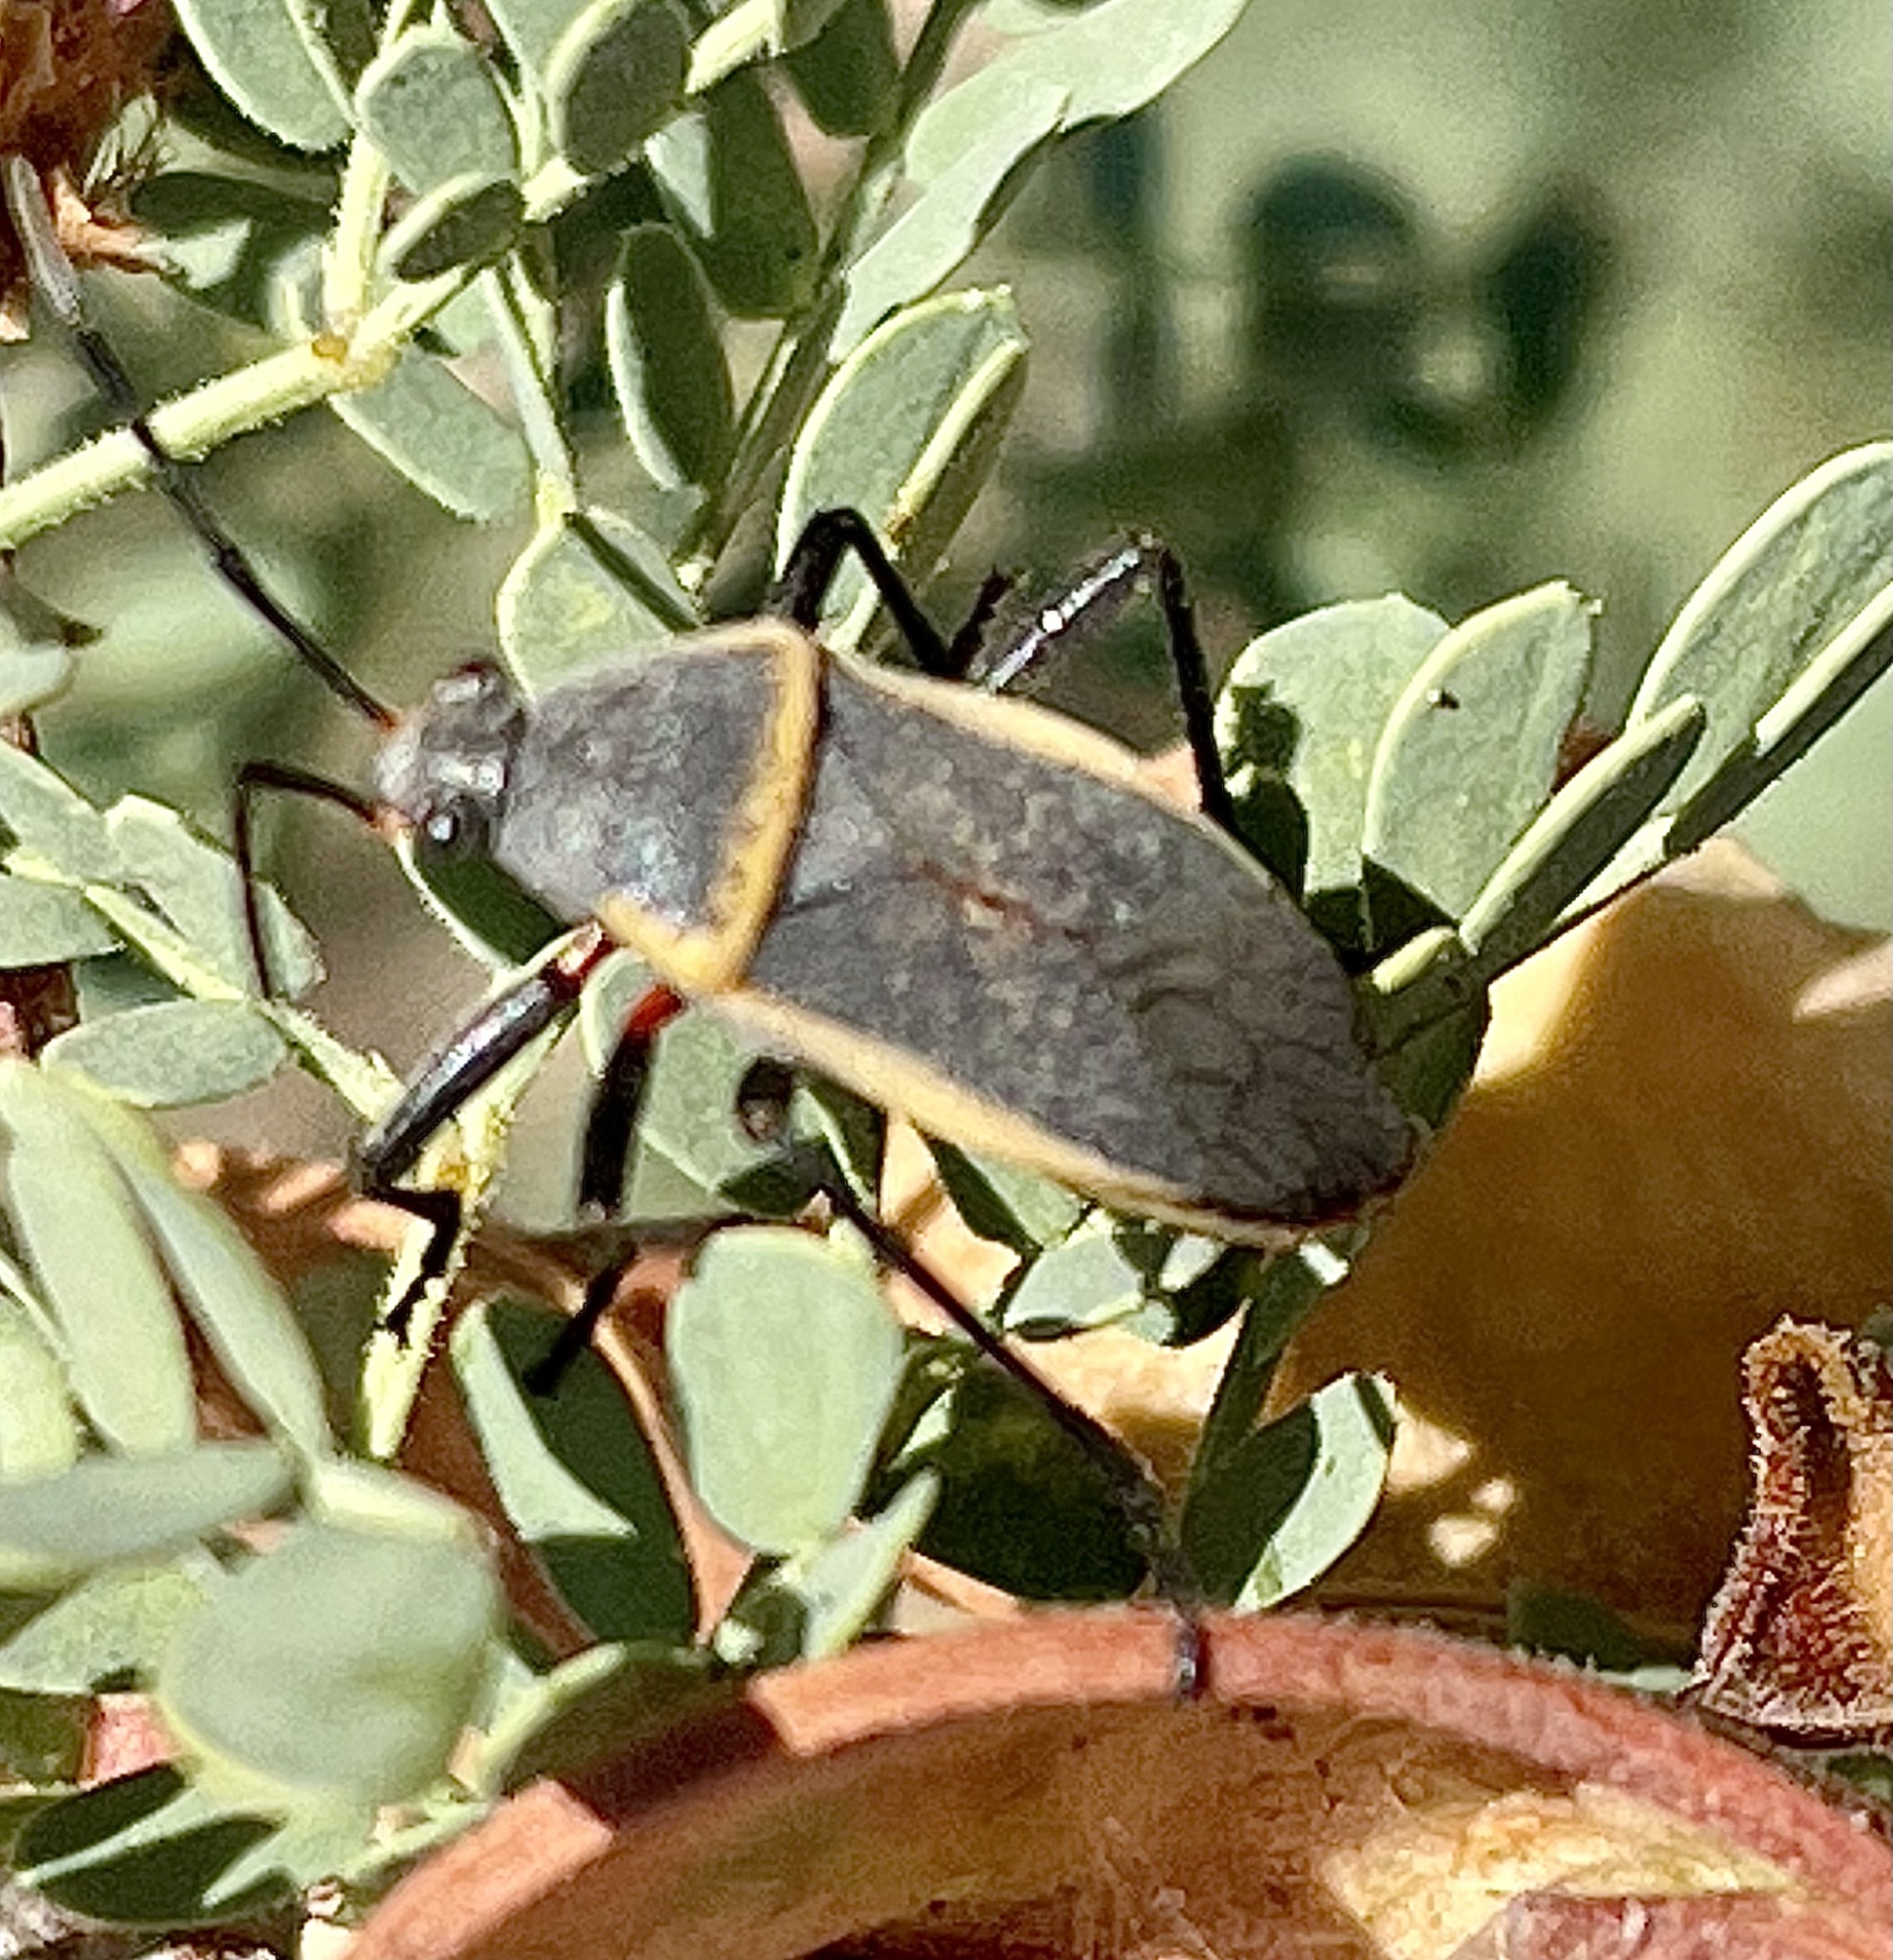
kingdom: Animalia
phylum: Arthropoda
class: Insecta
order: Hemiptera
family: Largidae
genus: Largus
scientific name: Largus californicus
